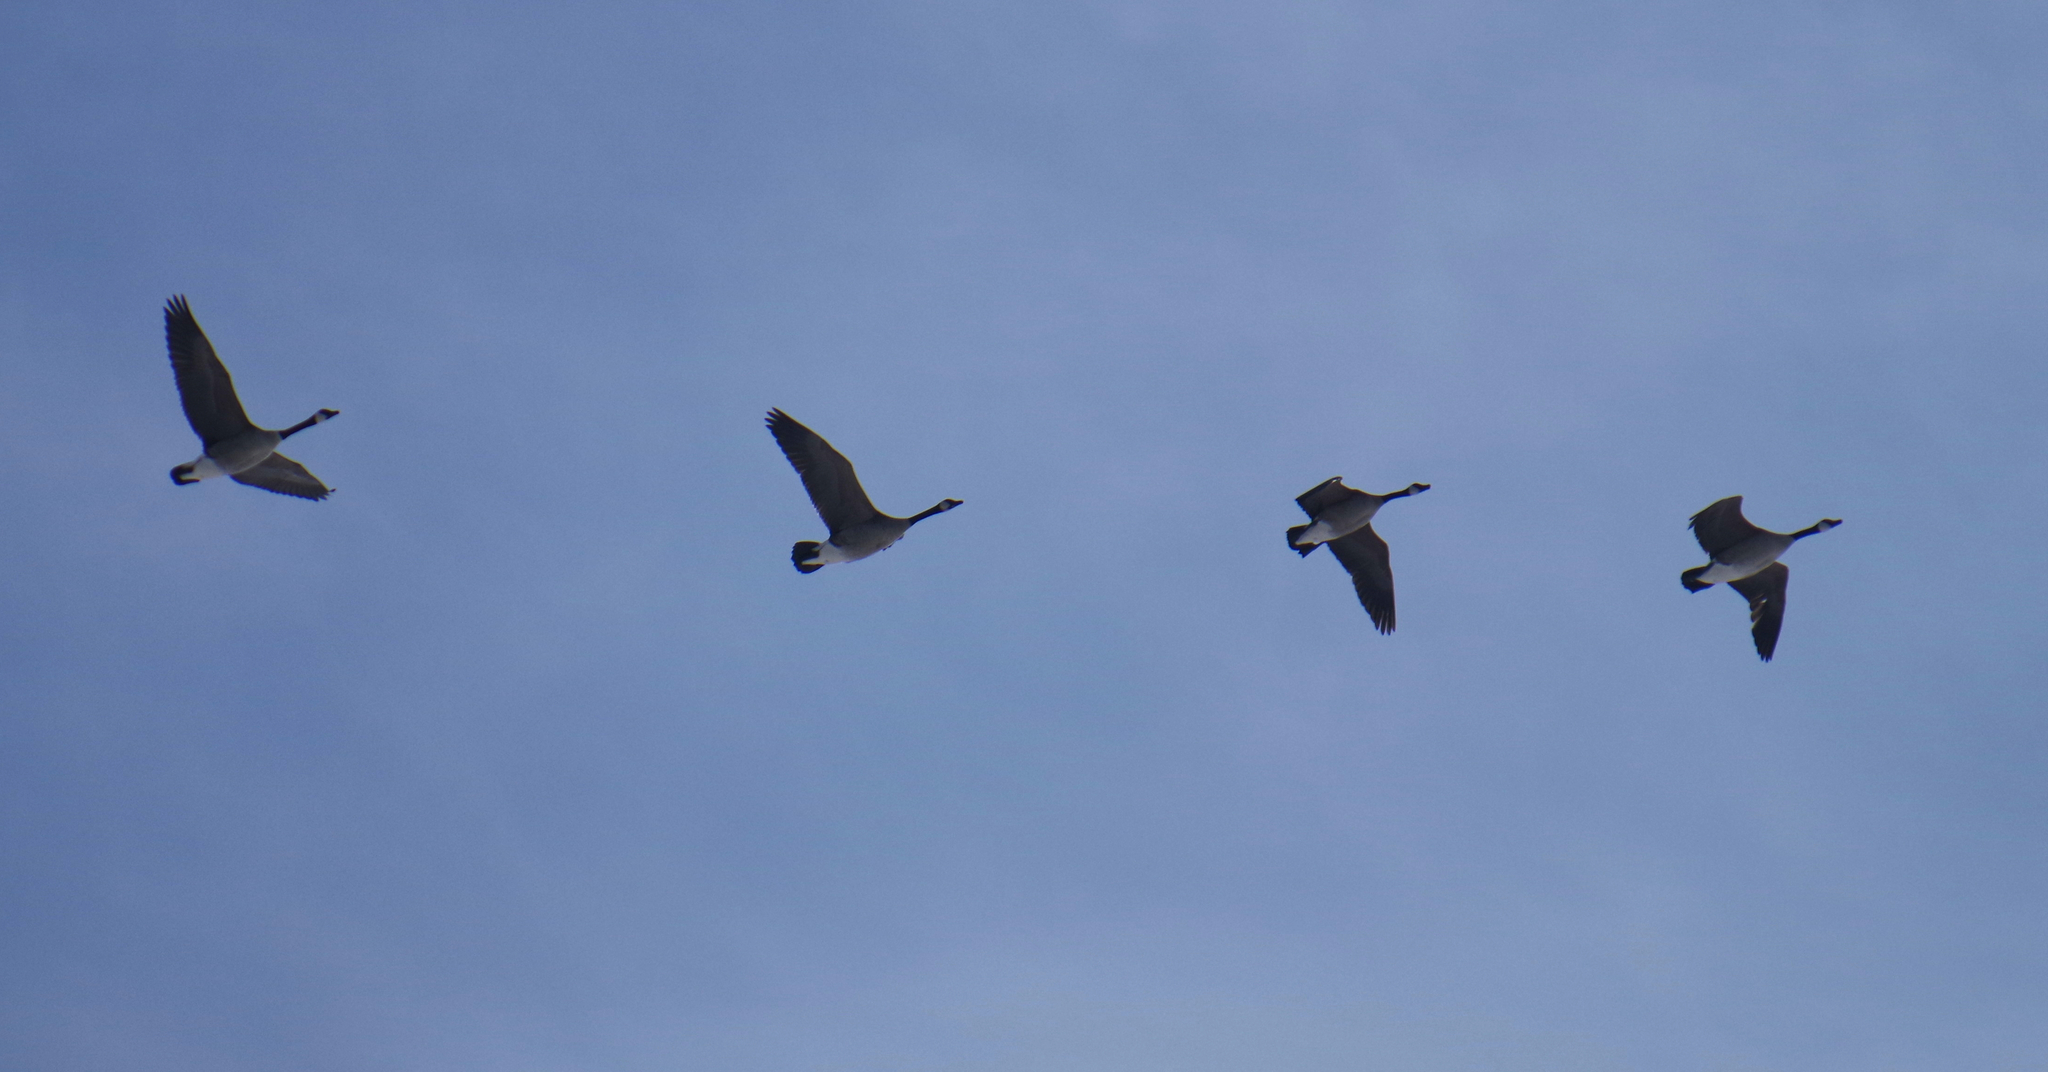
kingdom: Animalia
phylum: Chordata
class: Aves
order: Anseriformes
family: Anatidae
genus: Branta
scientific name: Branta canadensis
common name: Canada goose
